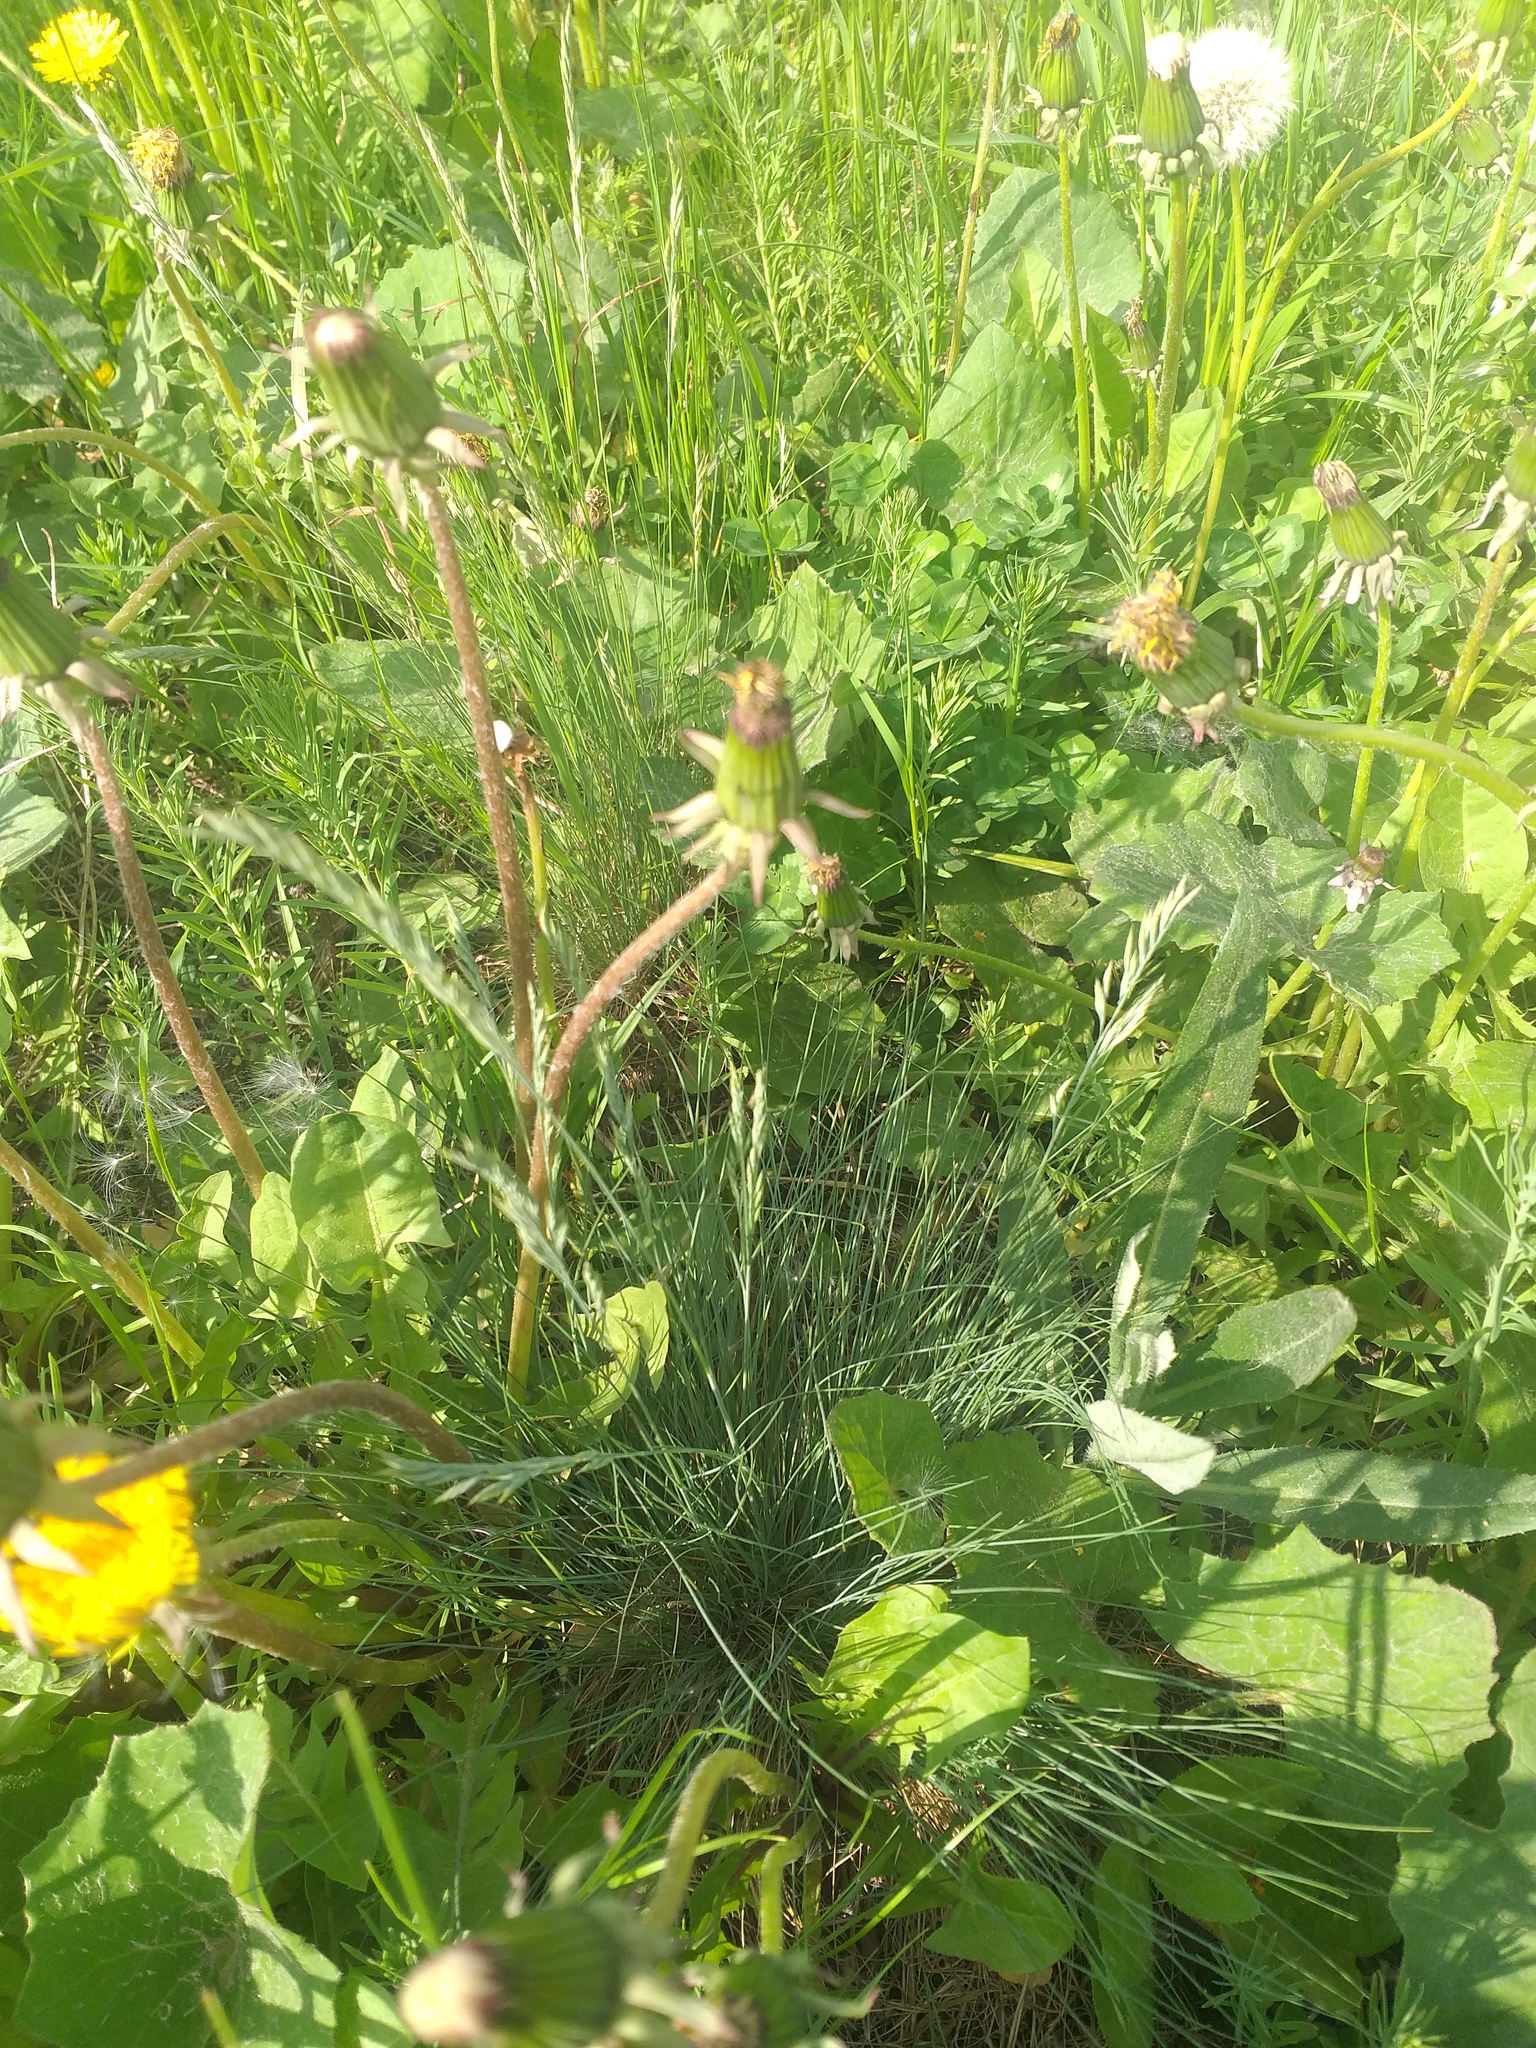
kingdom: Plantae
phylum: Tracheophyta
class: Liliopsida
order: Poales
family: Poaceae
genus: Festuca
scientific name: Festuca valesiaca
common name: Volga fescue
